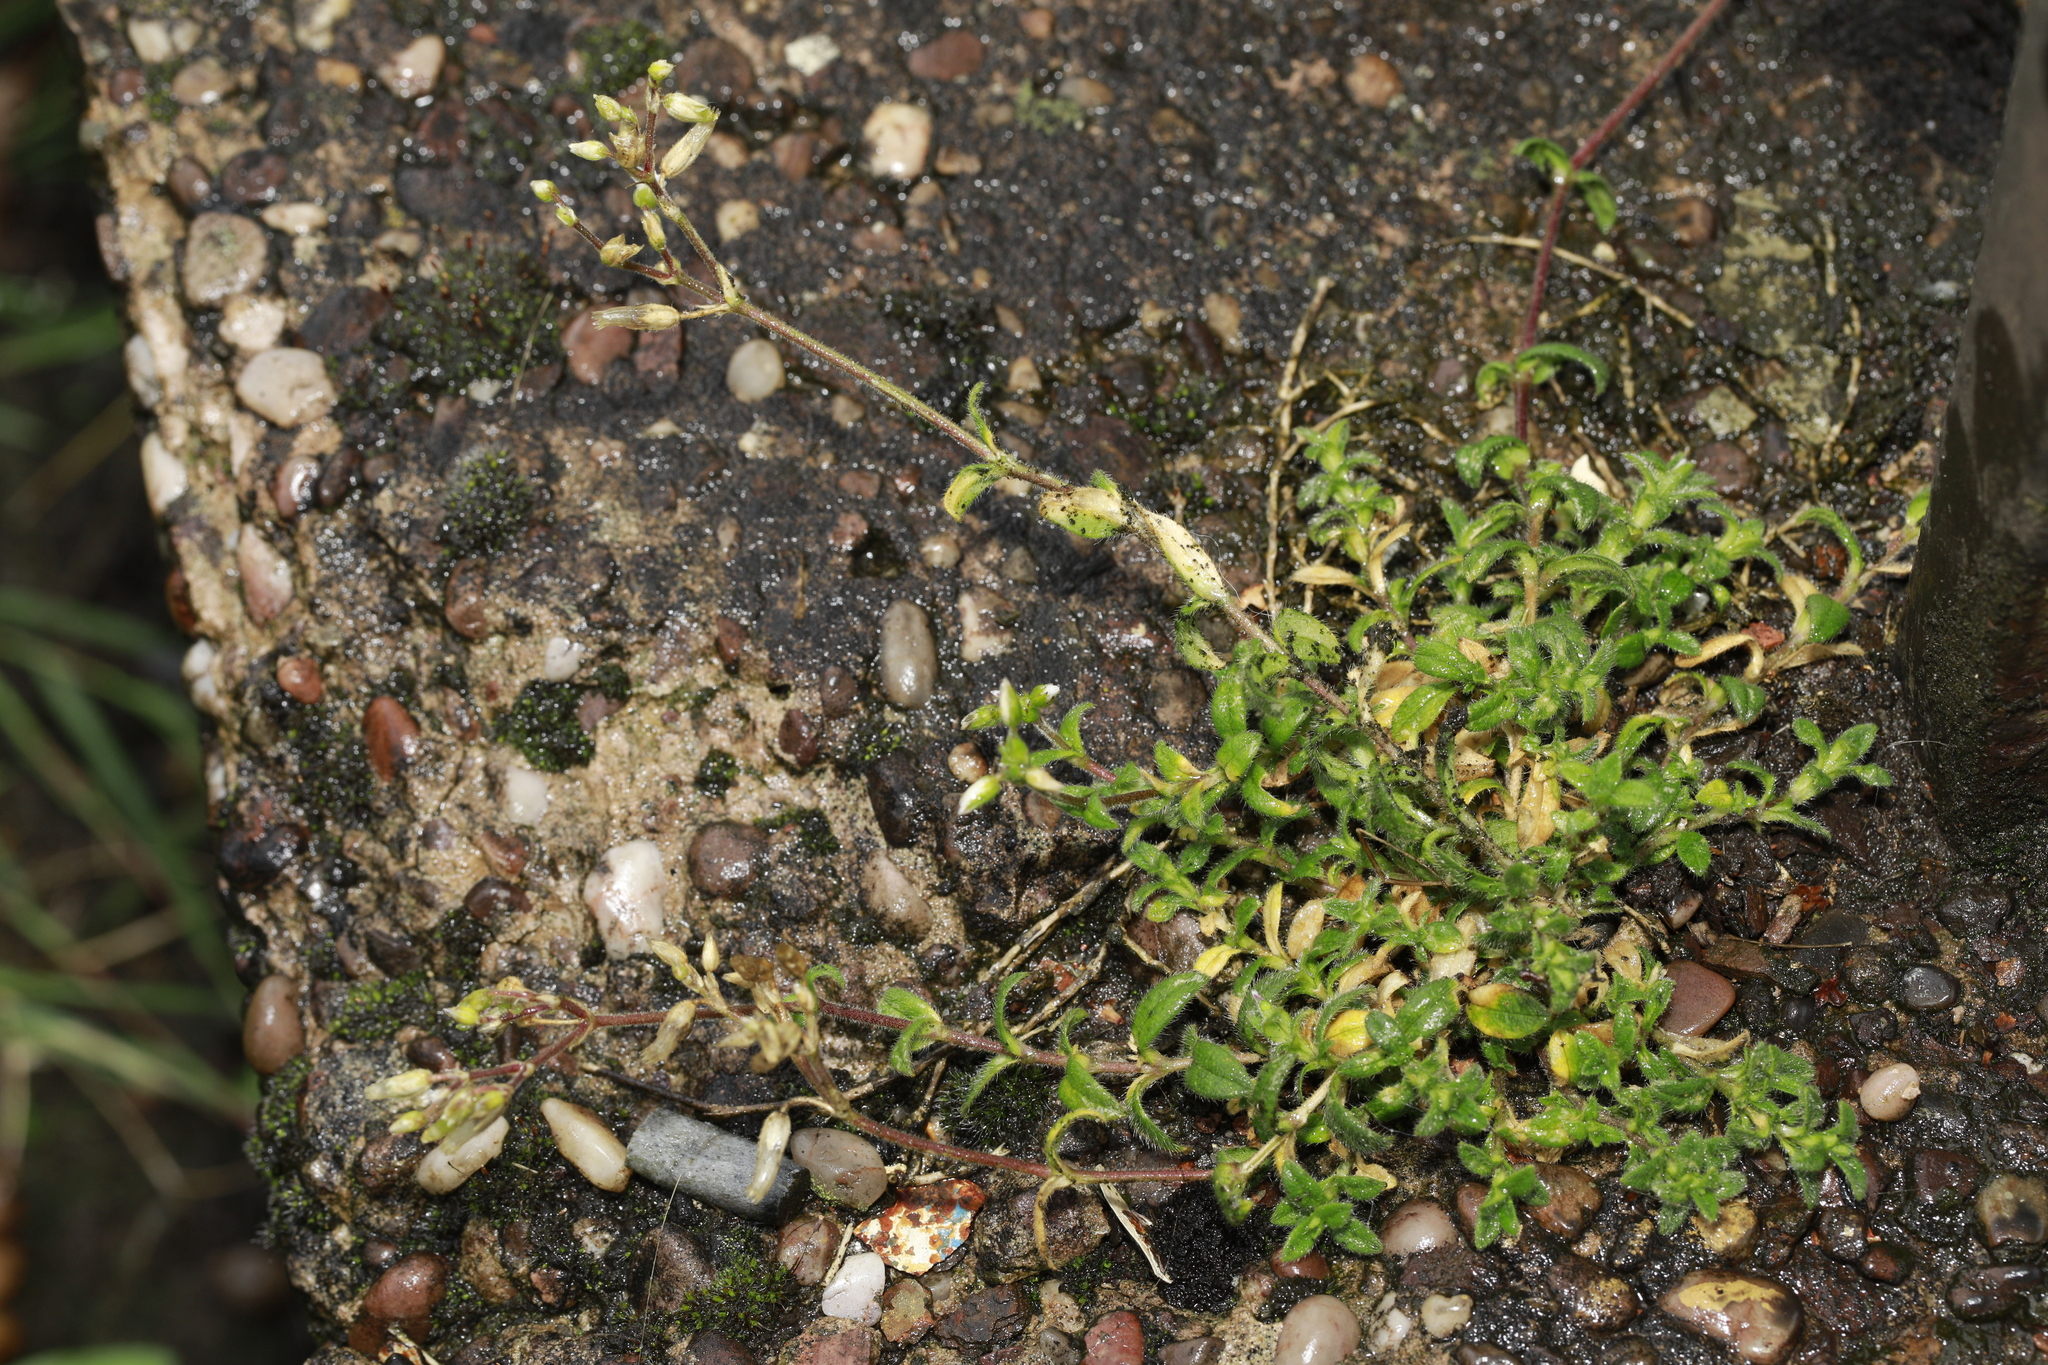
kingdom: Plantae
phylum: Tracheophyta
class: Magnoliopsida
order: Caryophyllales
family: Caryophyllaceae
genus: Cerastium
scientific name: Cerastium fontanum
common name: Common mouse-ear
